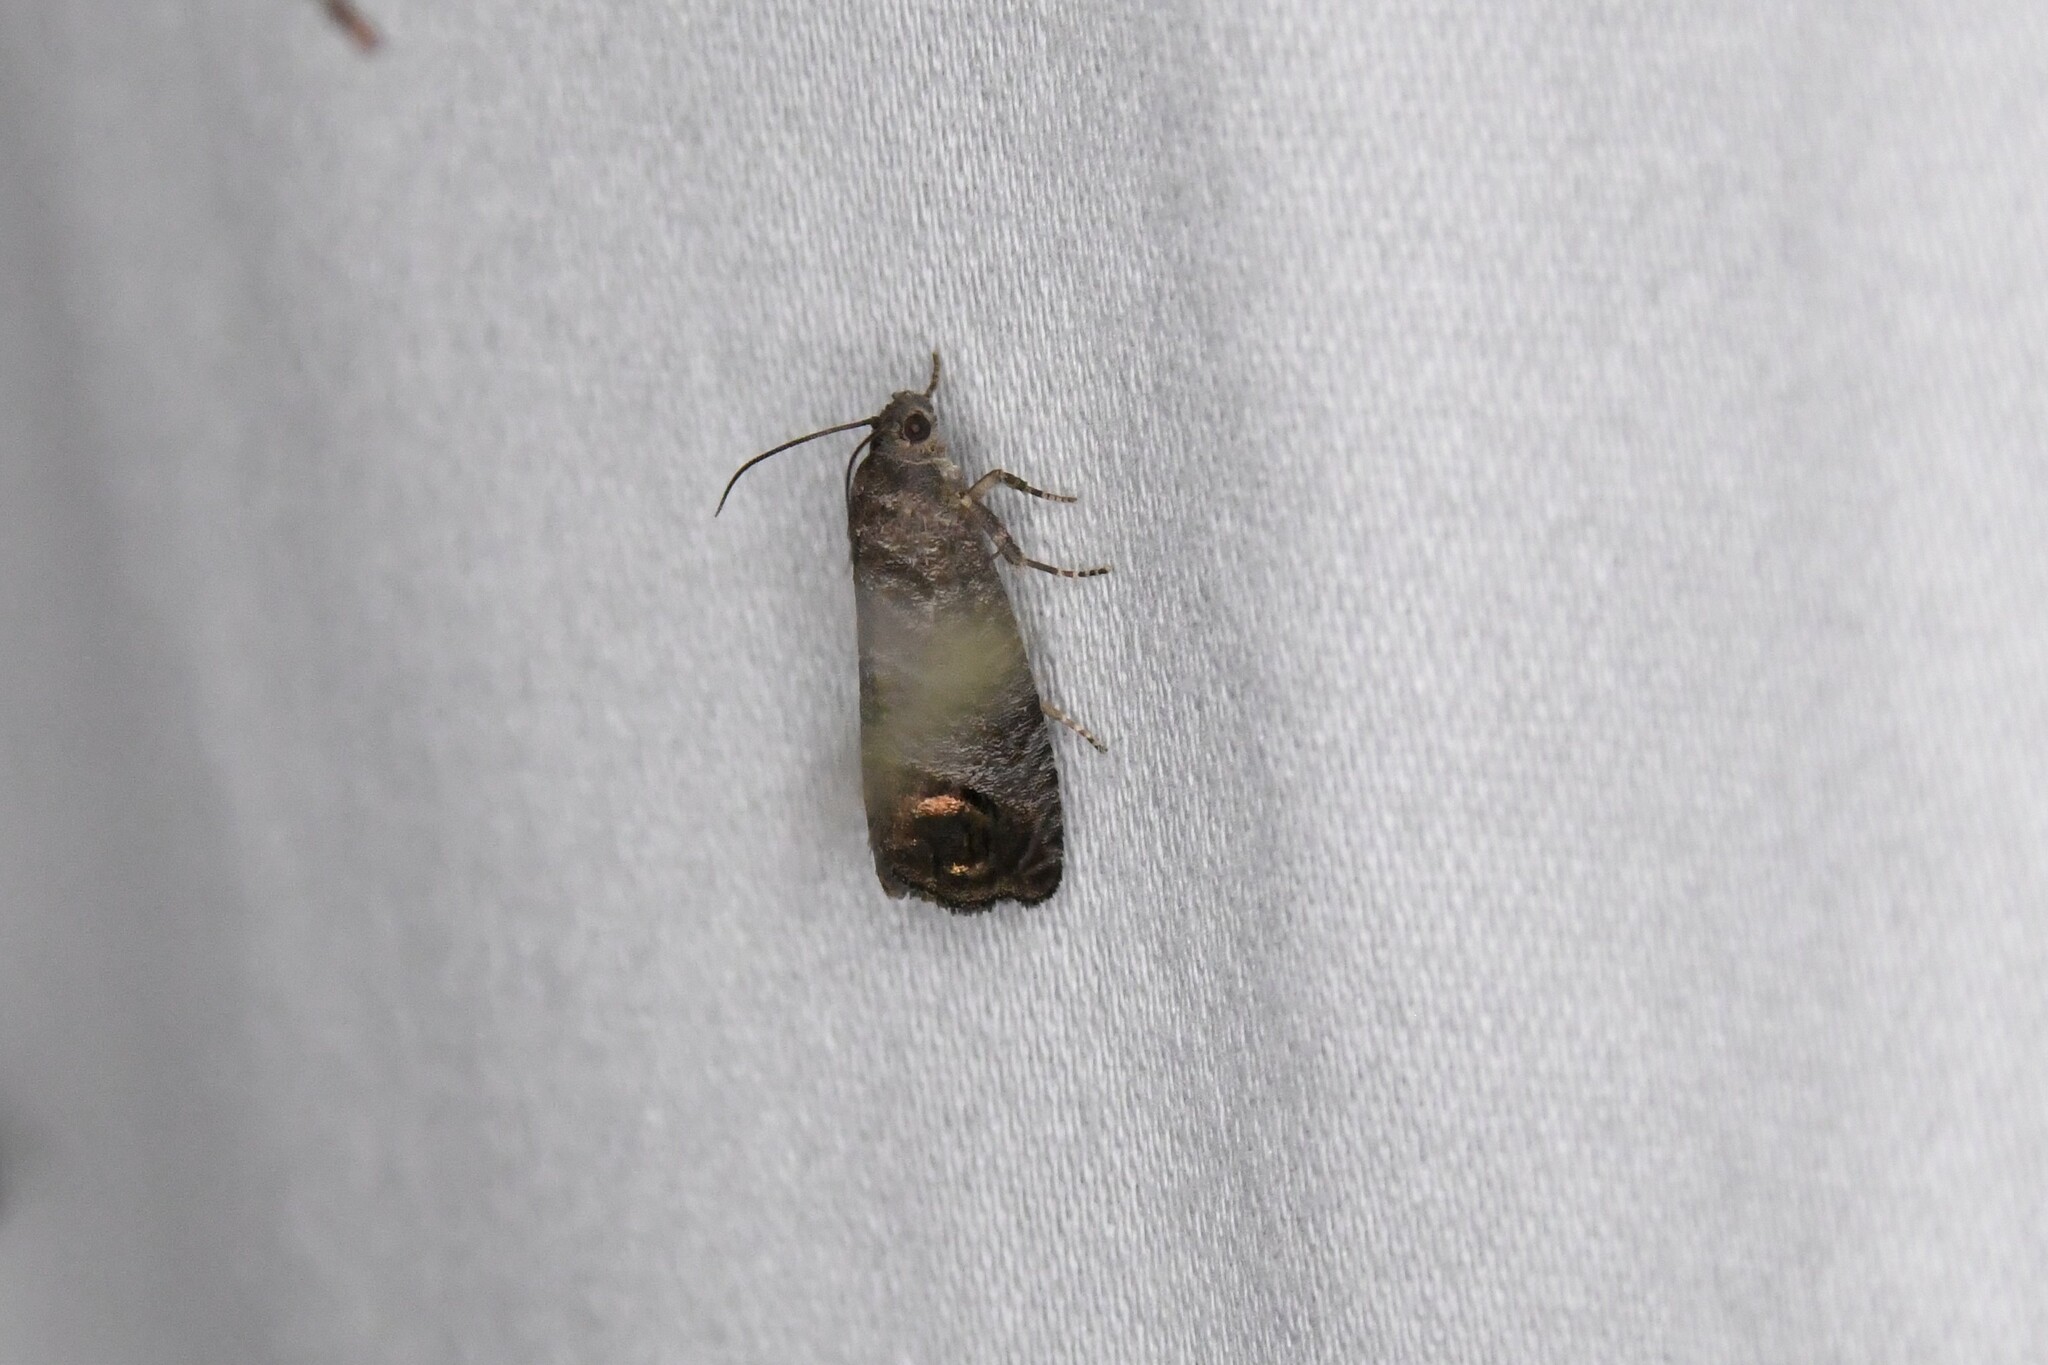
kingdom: Animalia
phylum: Arthropoda
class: Insecta
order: Lepidoptera
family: Tortricidae
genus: Cydia
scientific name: Cydia pomonella
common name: Codling moth
